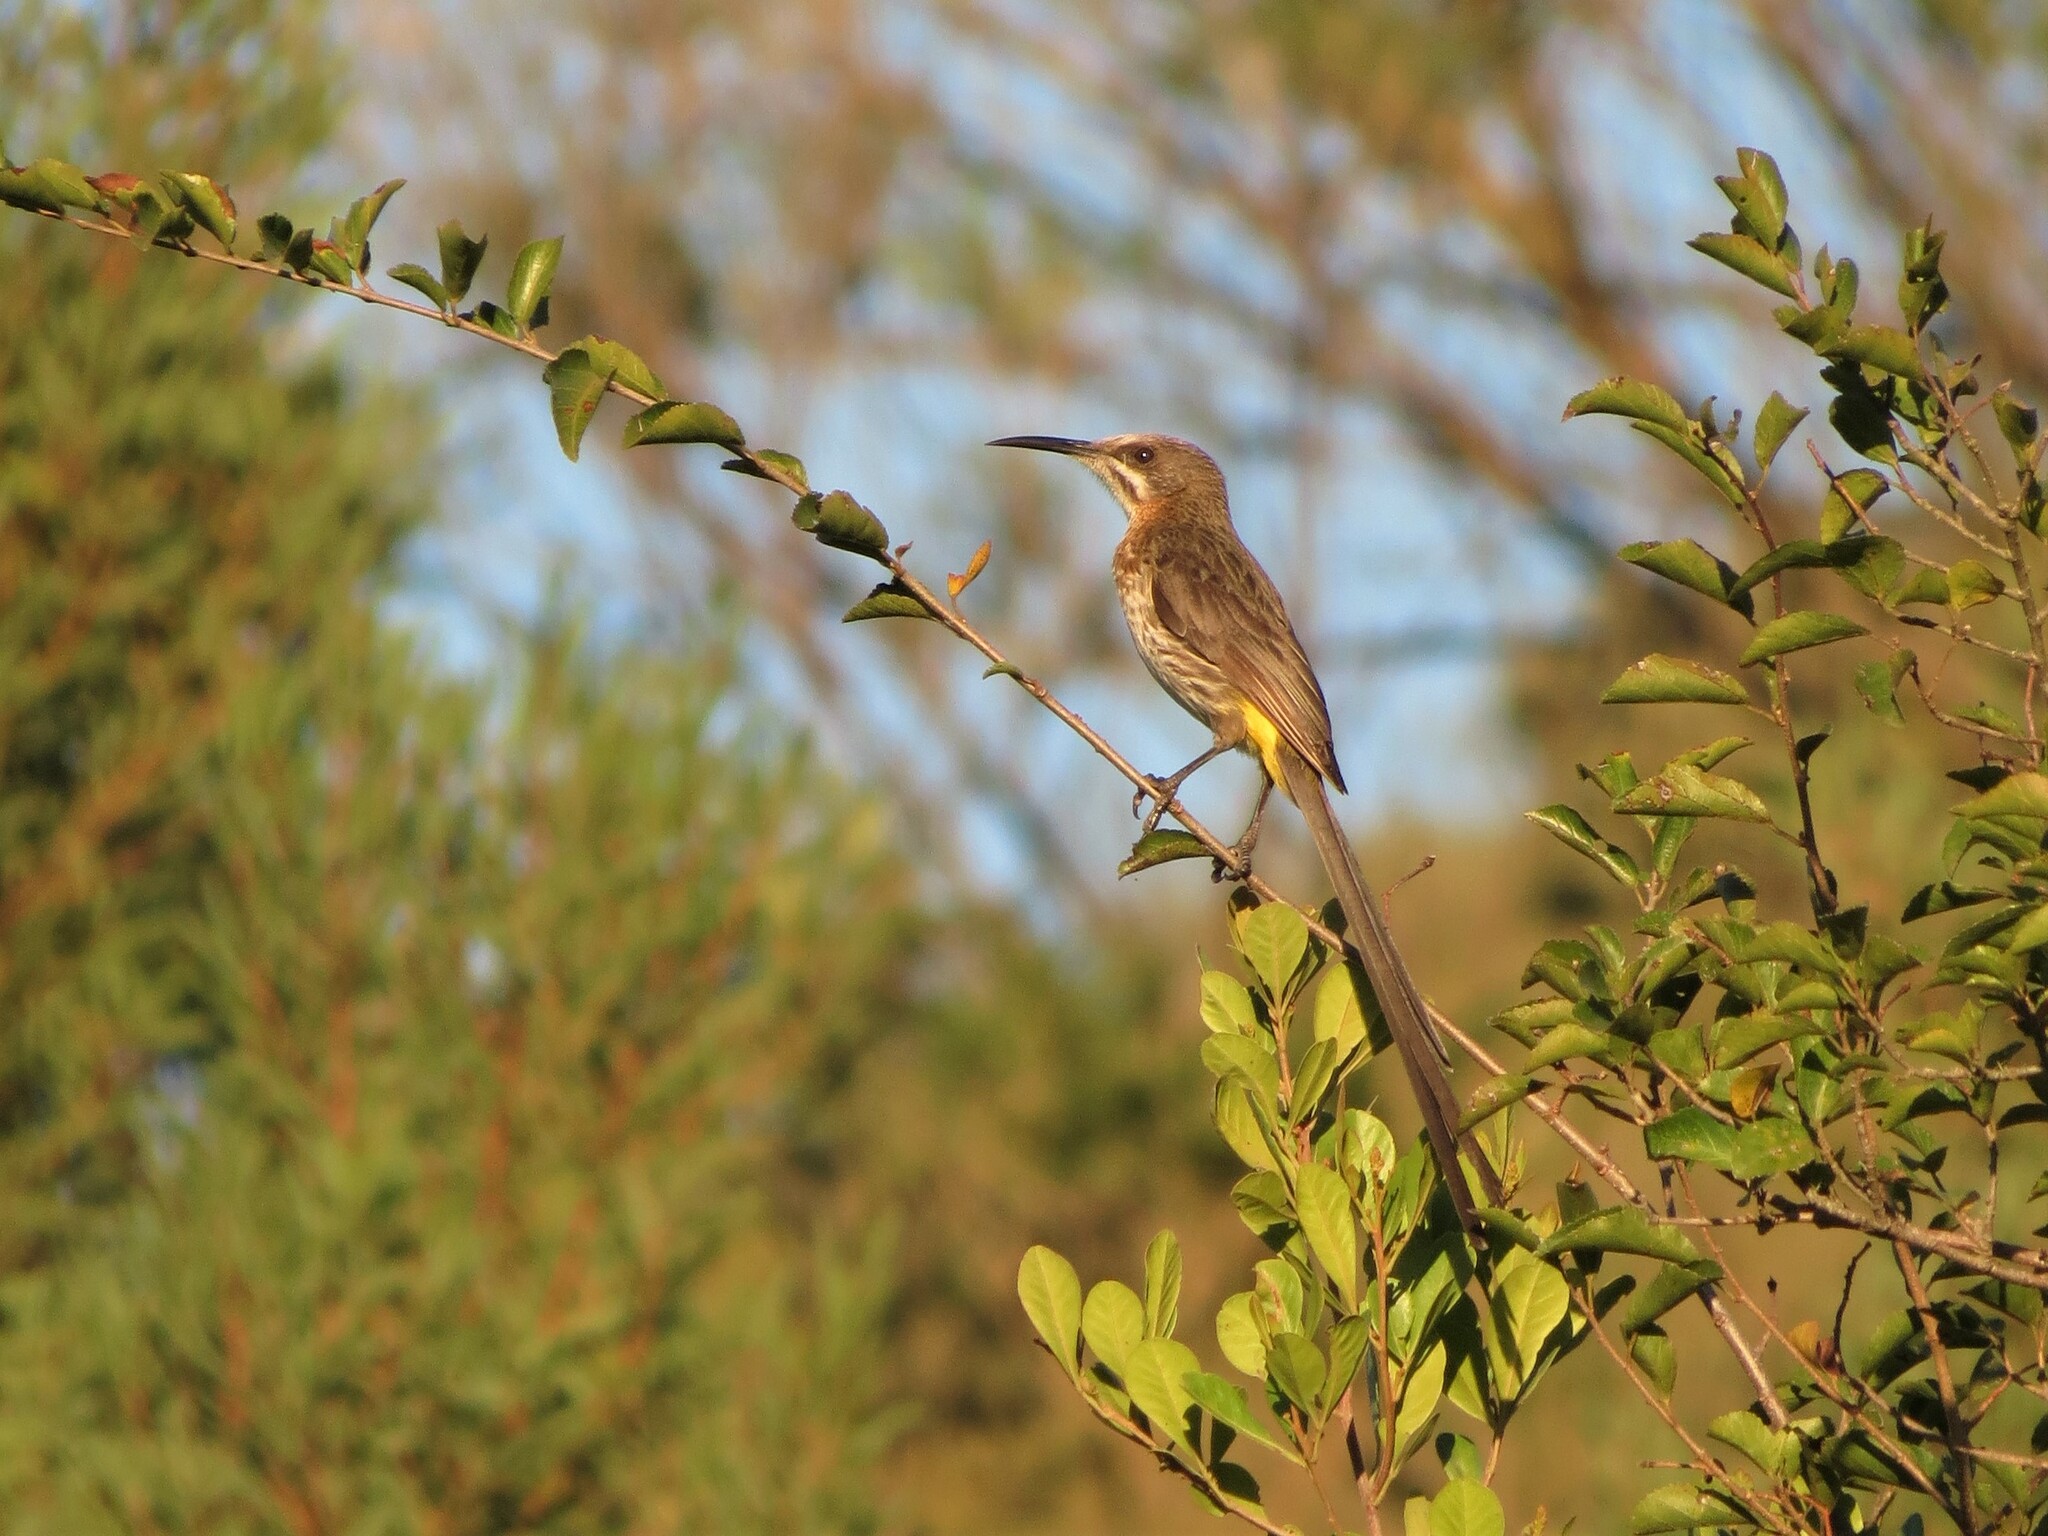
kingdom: Animalia
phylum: Chordata
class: Aves
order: Passeriformes
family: Promeropidae
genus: Promerops
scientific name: Promerops cafer
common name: Cape sugarbird
